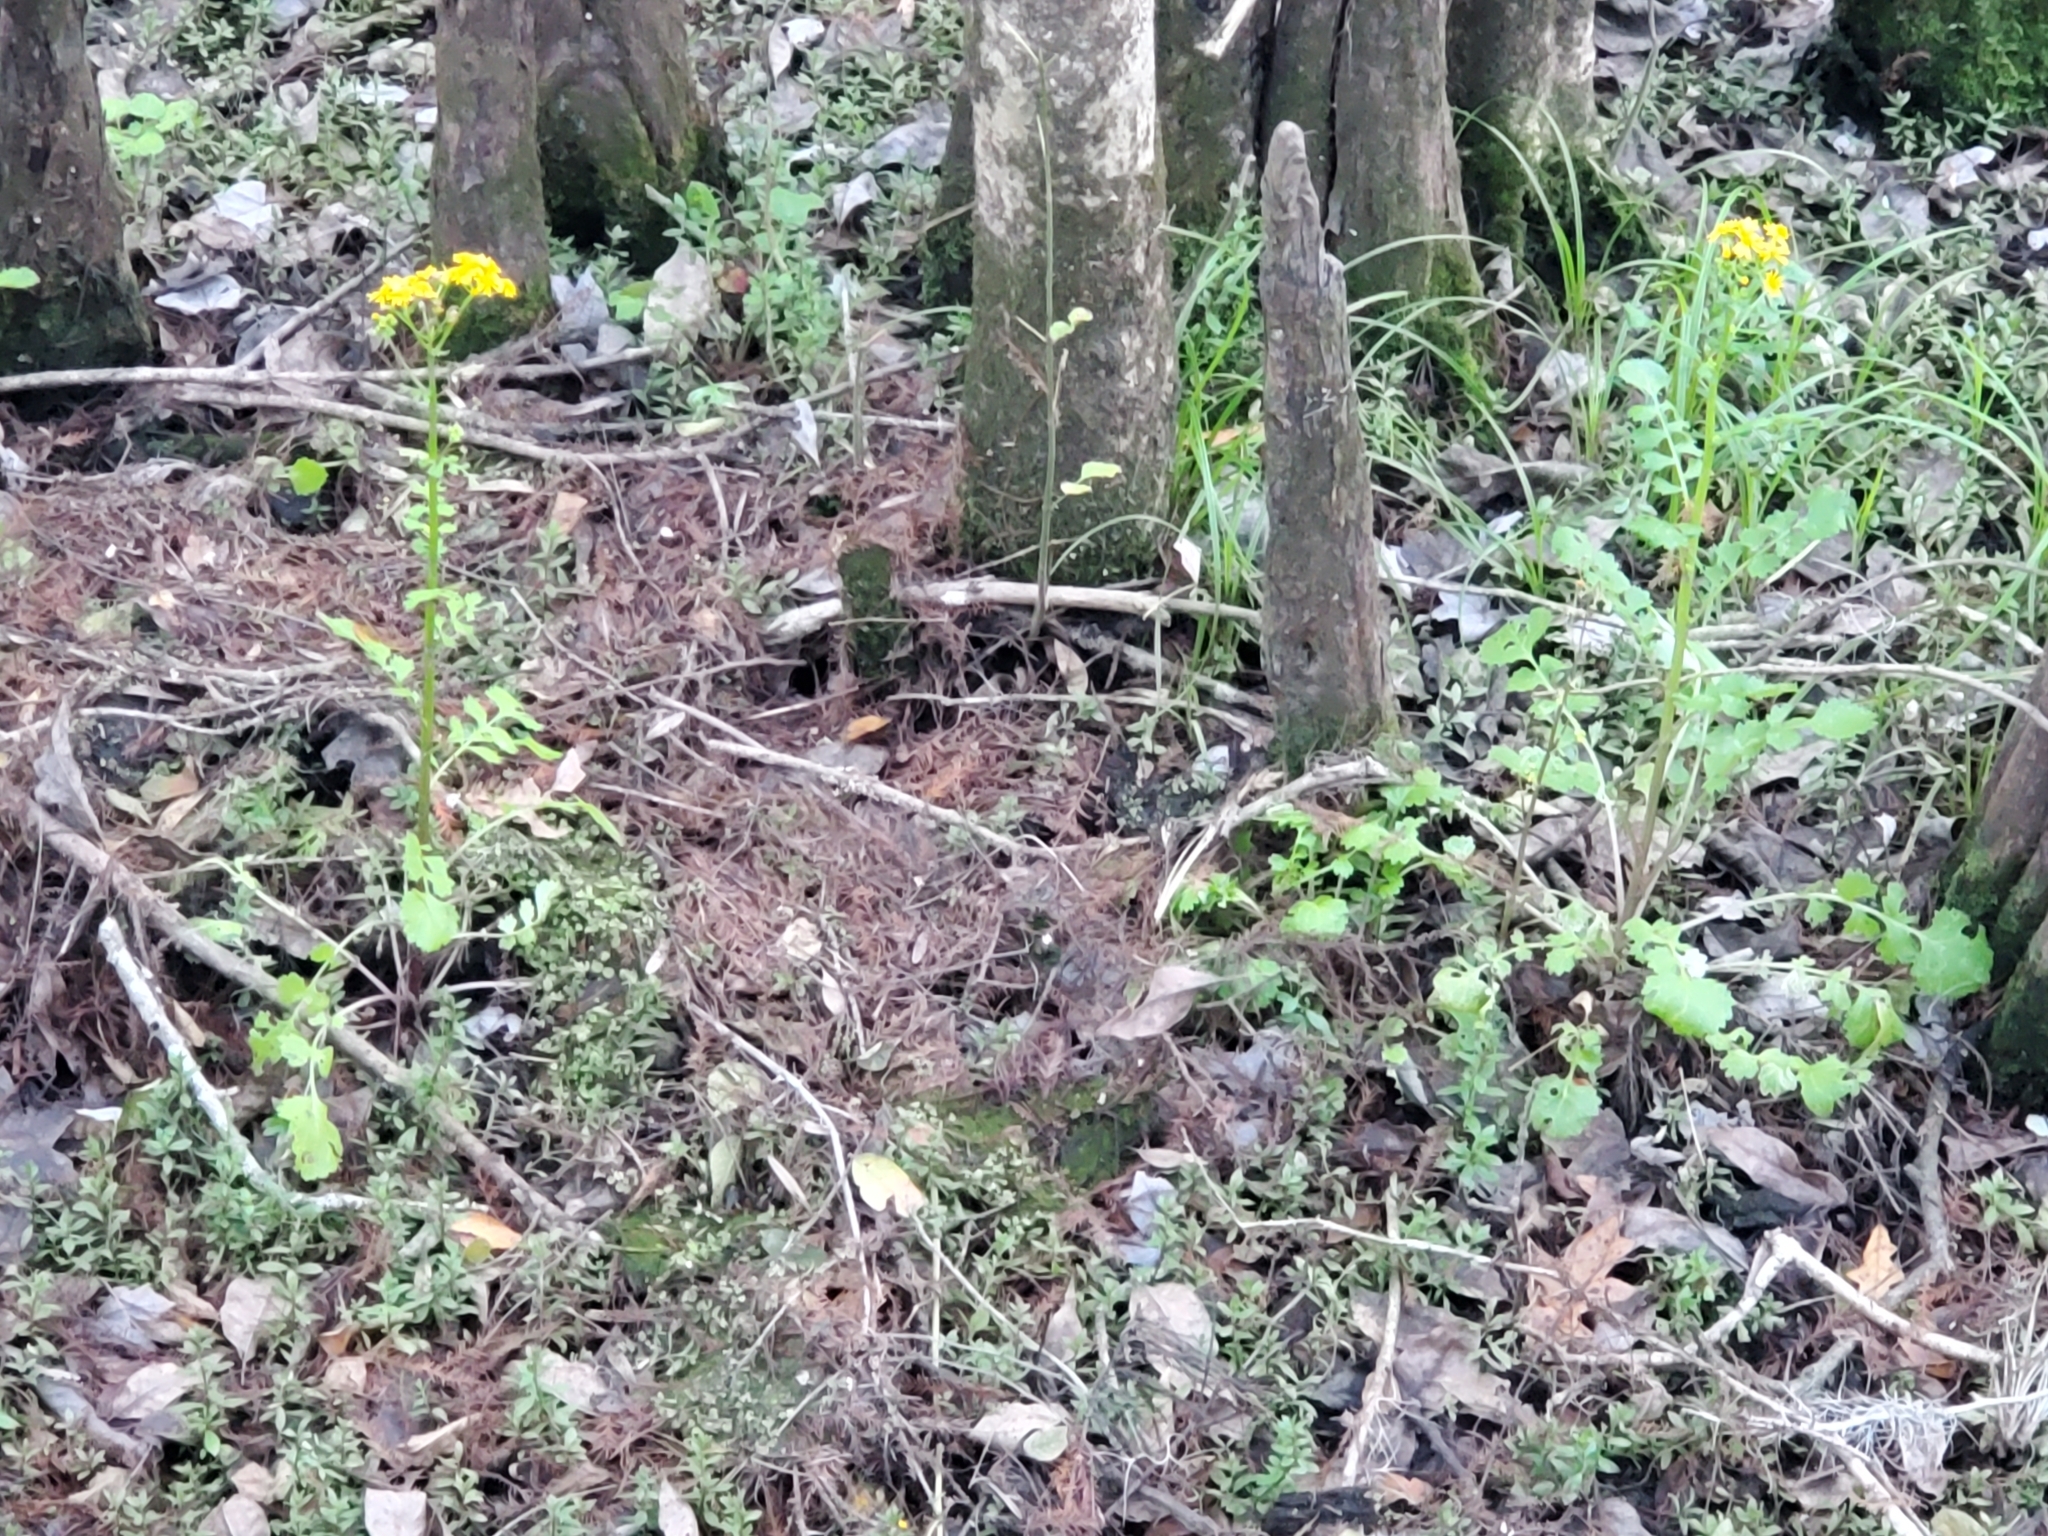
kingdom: Plantae
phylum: Tracheophyta
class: Magnoliopsida
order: Asterales
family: Asteraceae
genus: Packera
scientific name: Packera glabella
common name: Butterweed
